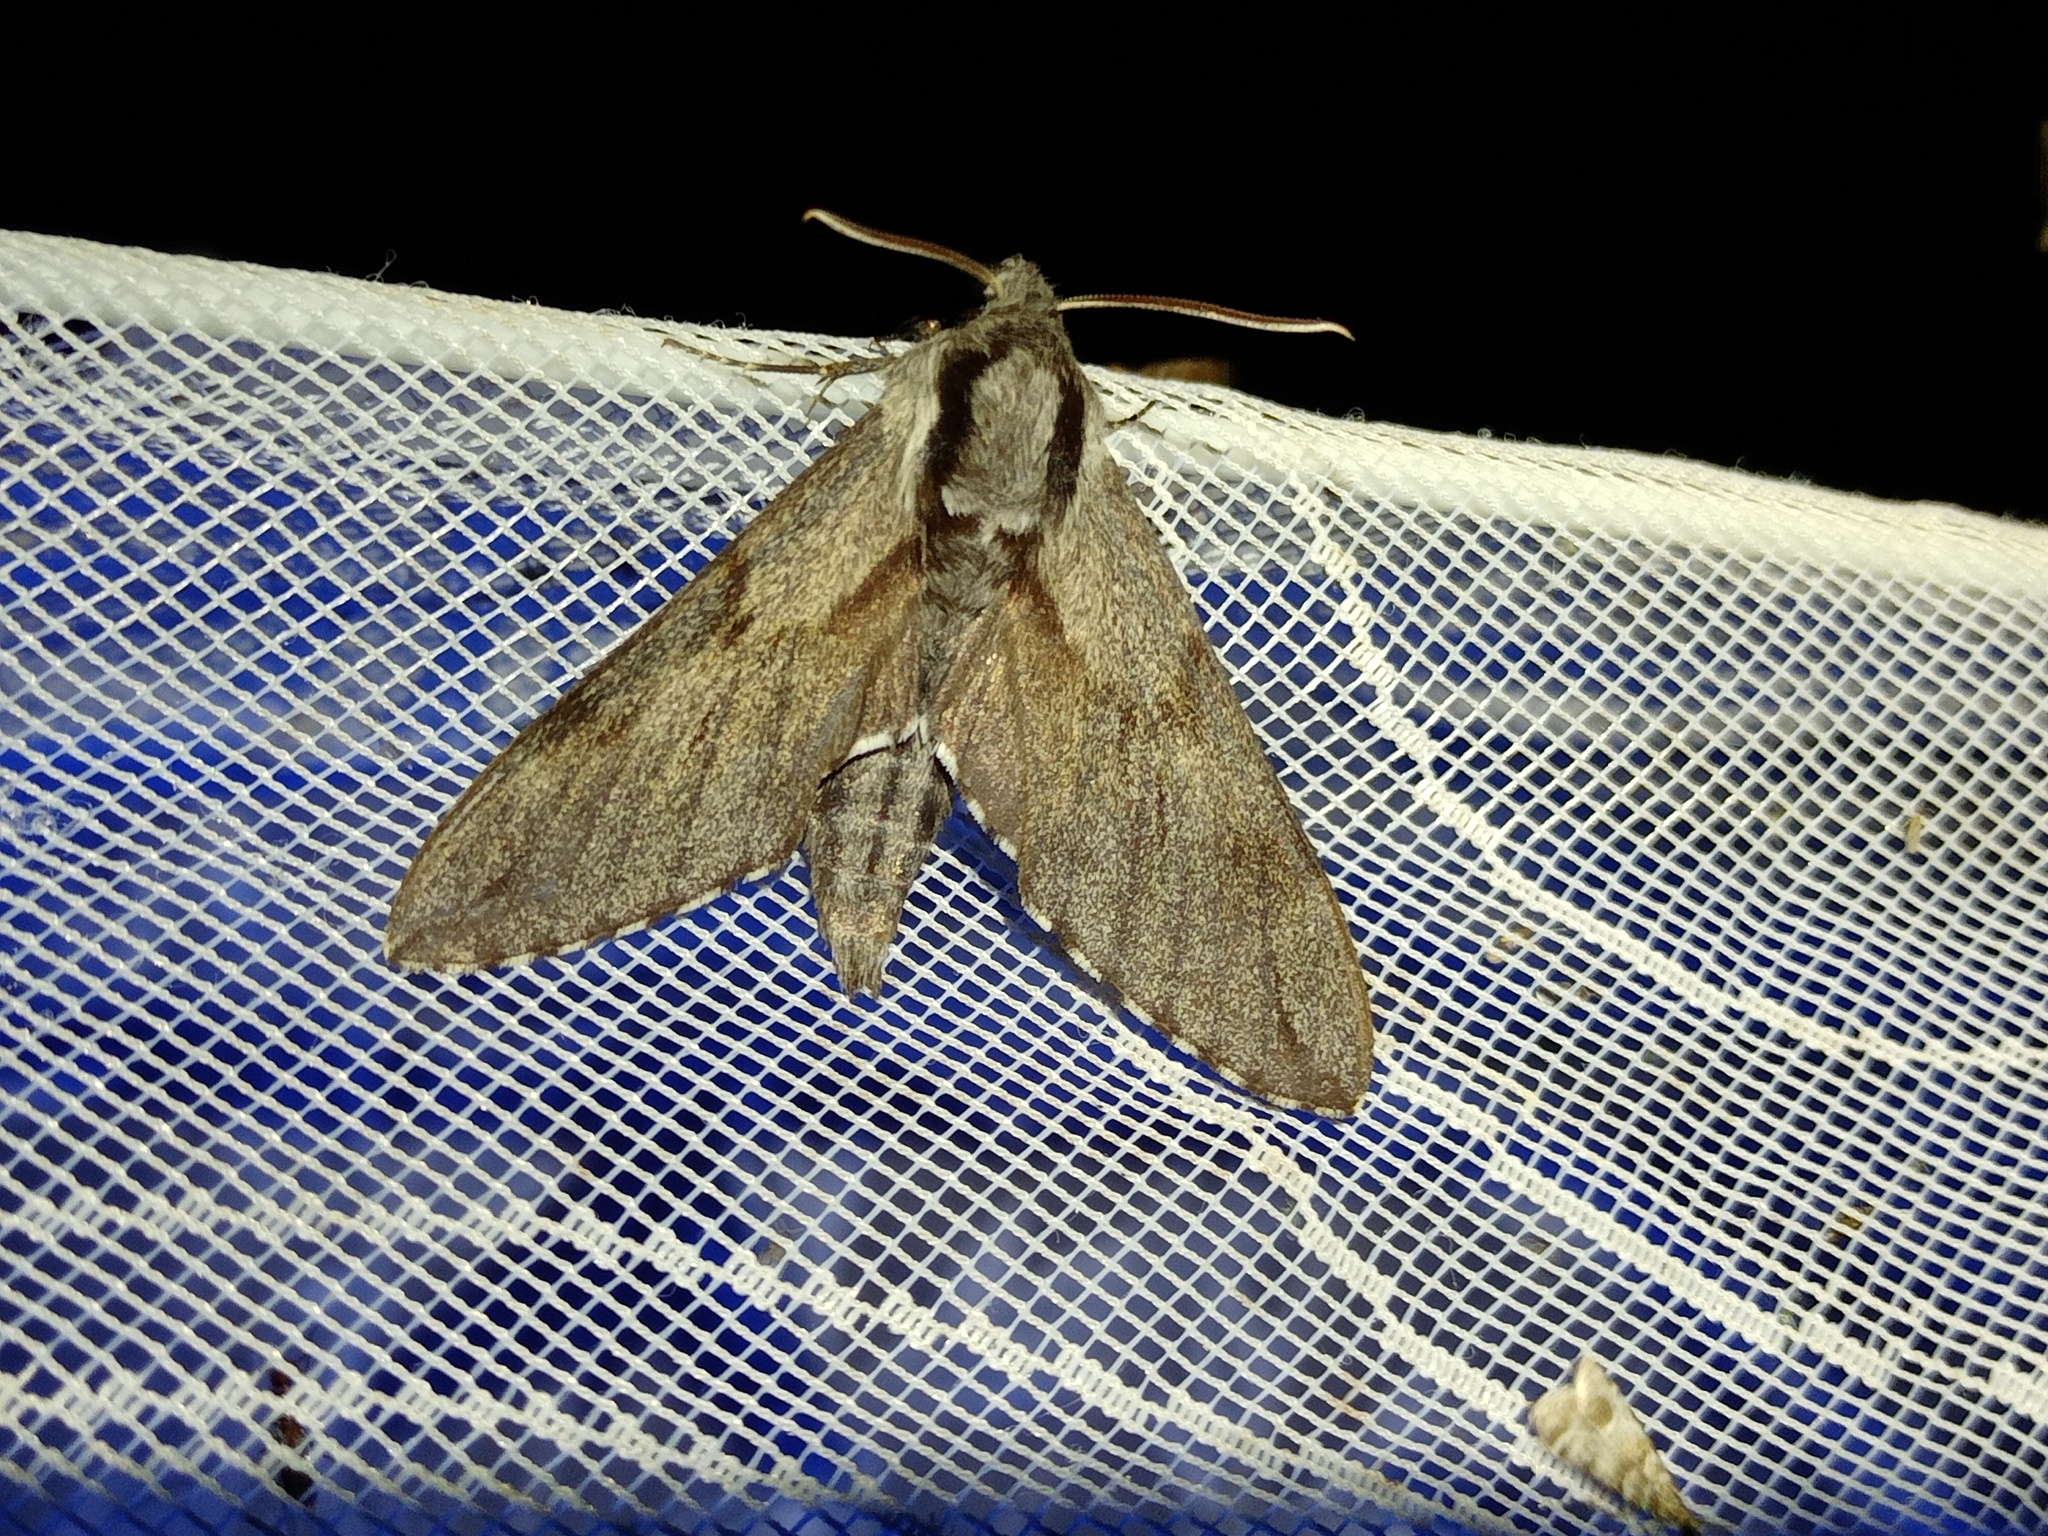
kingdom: Animalia
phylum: Arthropoda
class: Insecta
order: Lepidoptera
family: Sphingidae
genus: Sphinx
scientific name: Sphinx pinastri
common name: Pine hawk-moth
